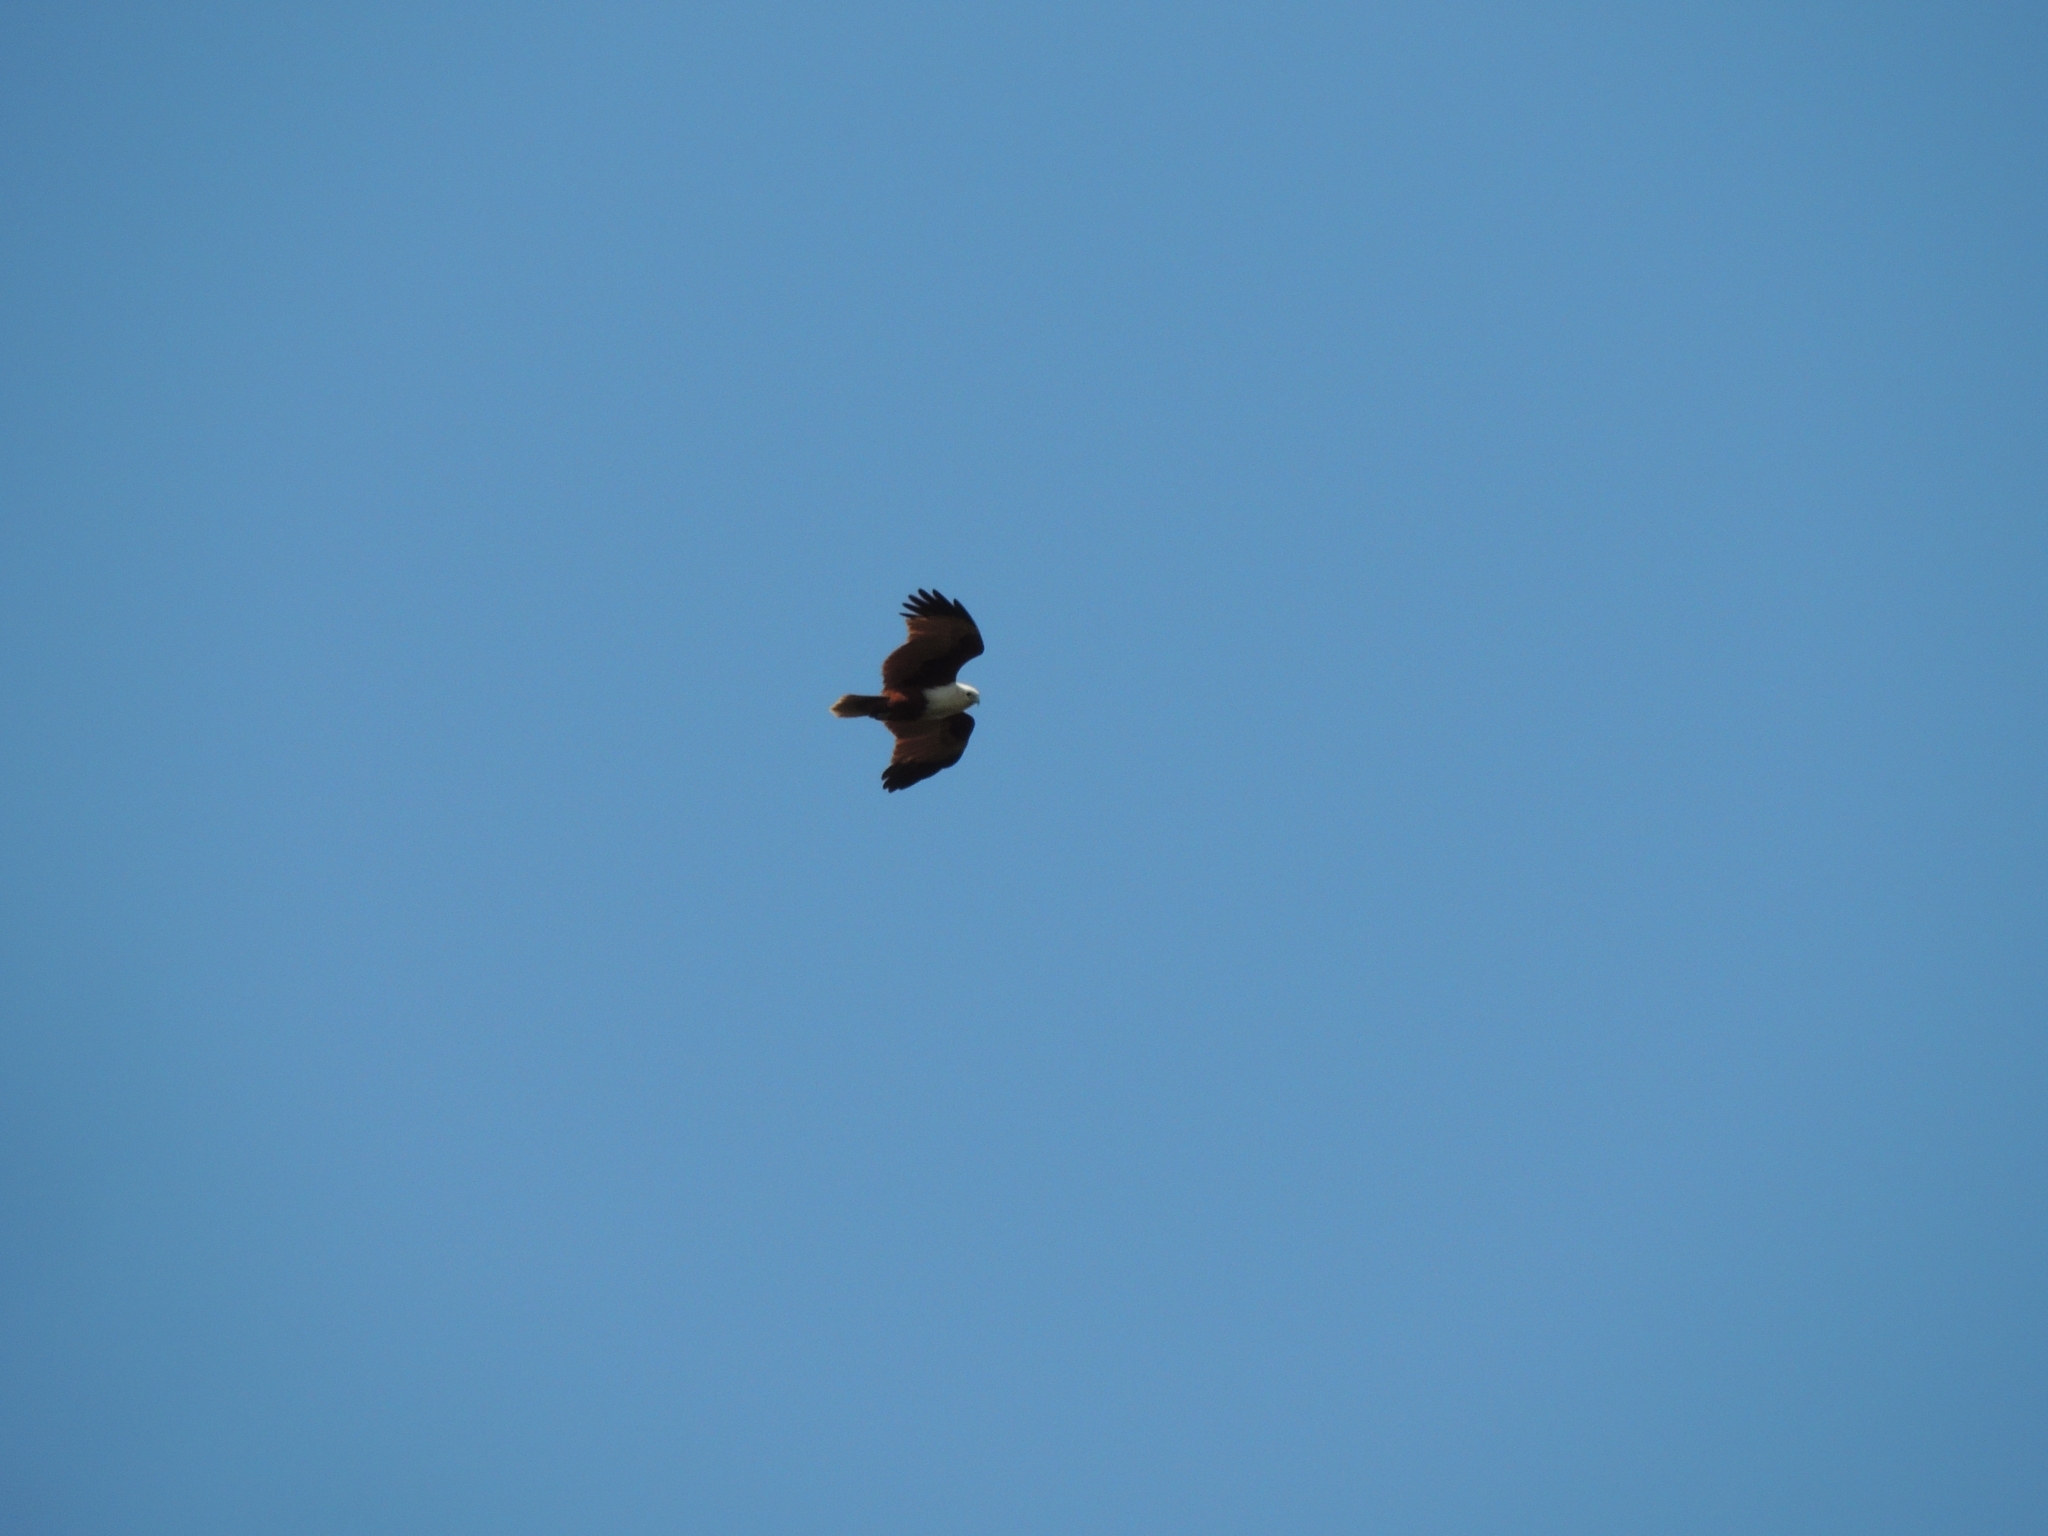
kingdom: Animalia
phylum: Chordata
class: Aves
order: Accipitriformes
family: Accipitridae
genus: Haliastur
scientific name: Haliastur indus
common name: Brahminy kite
